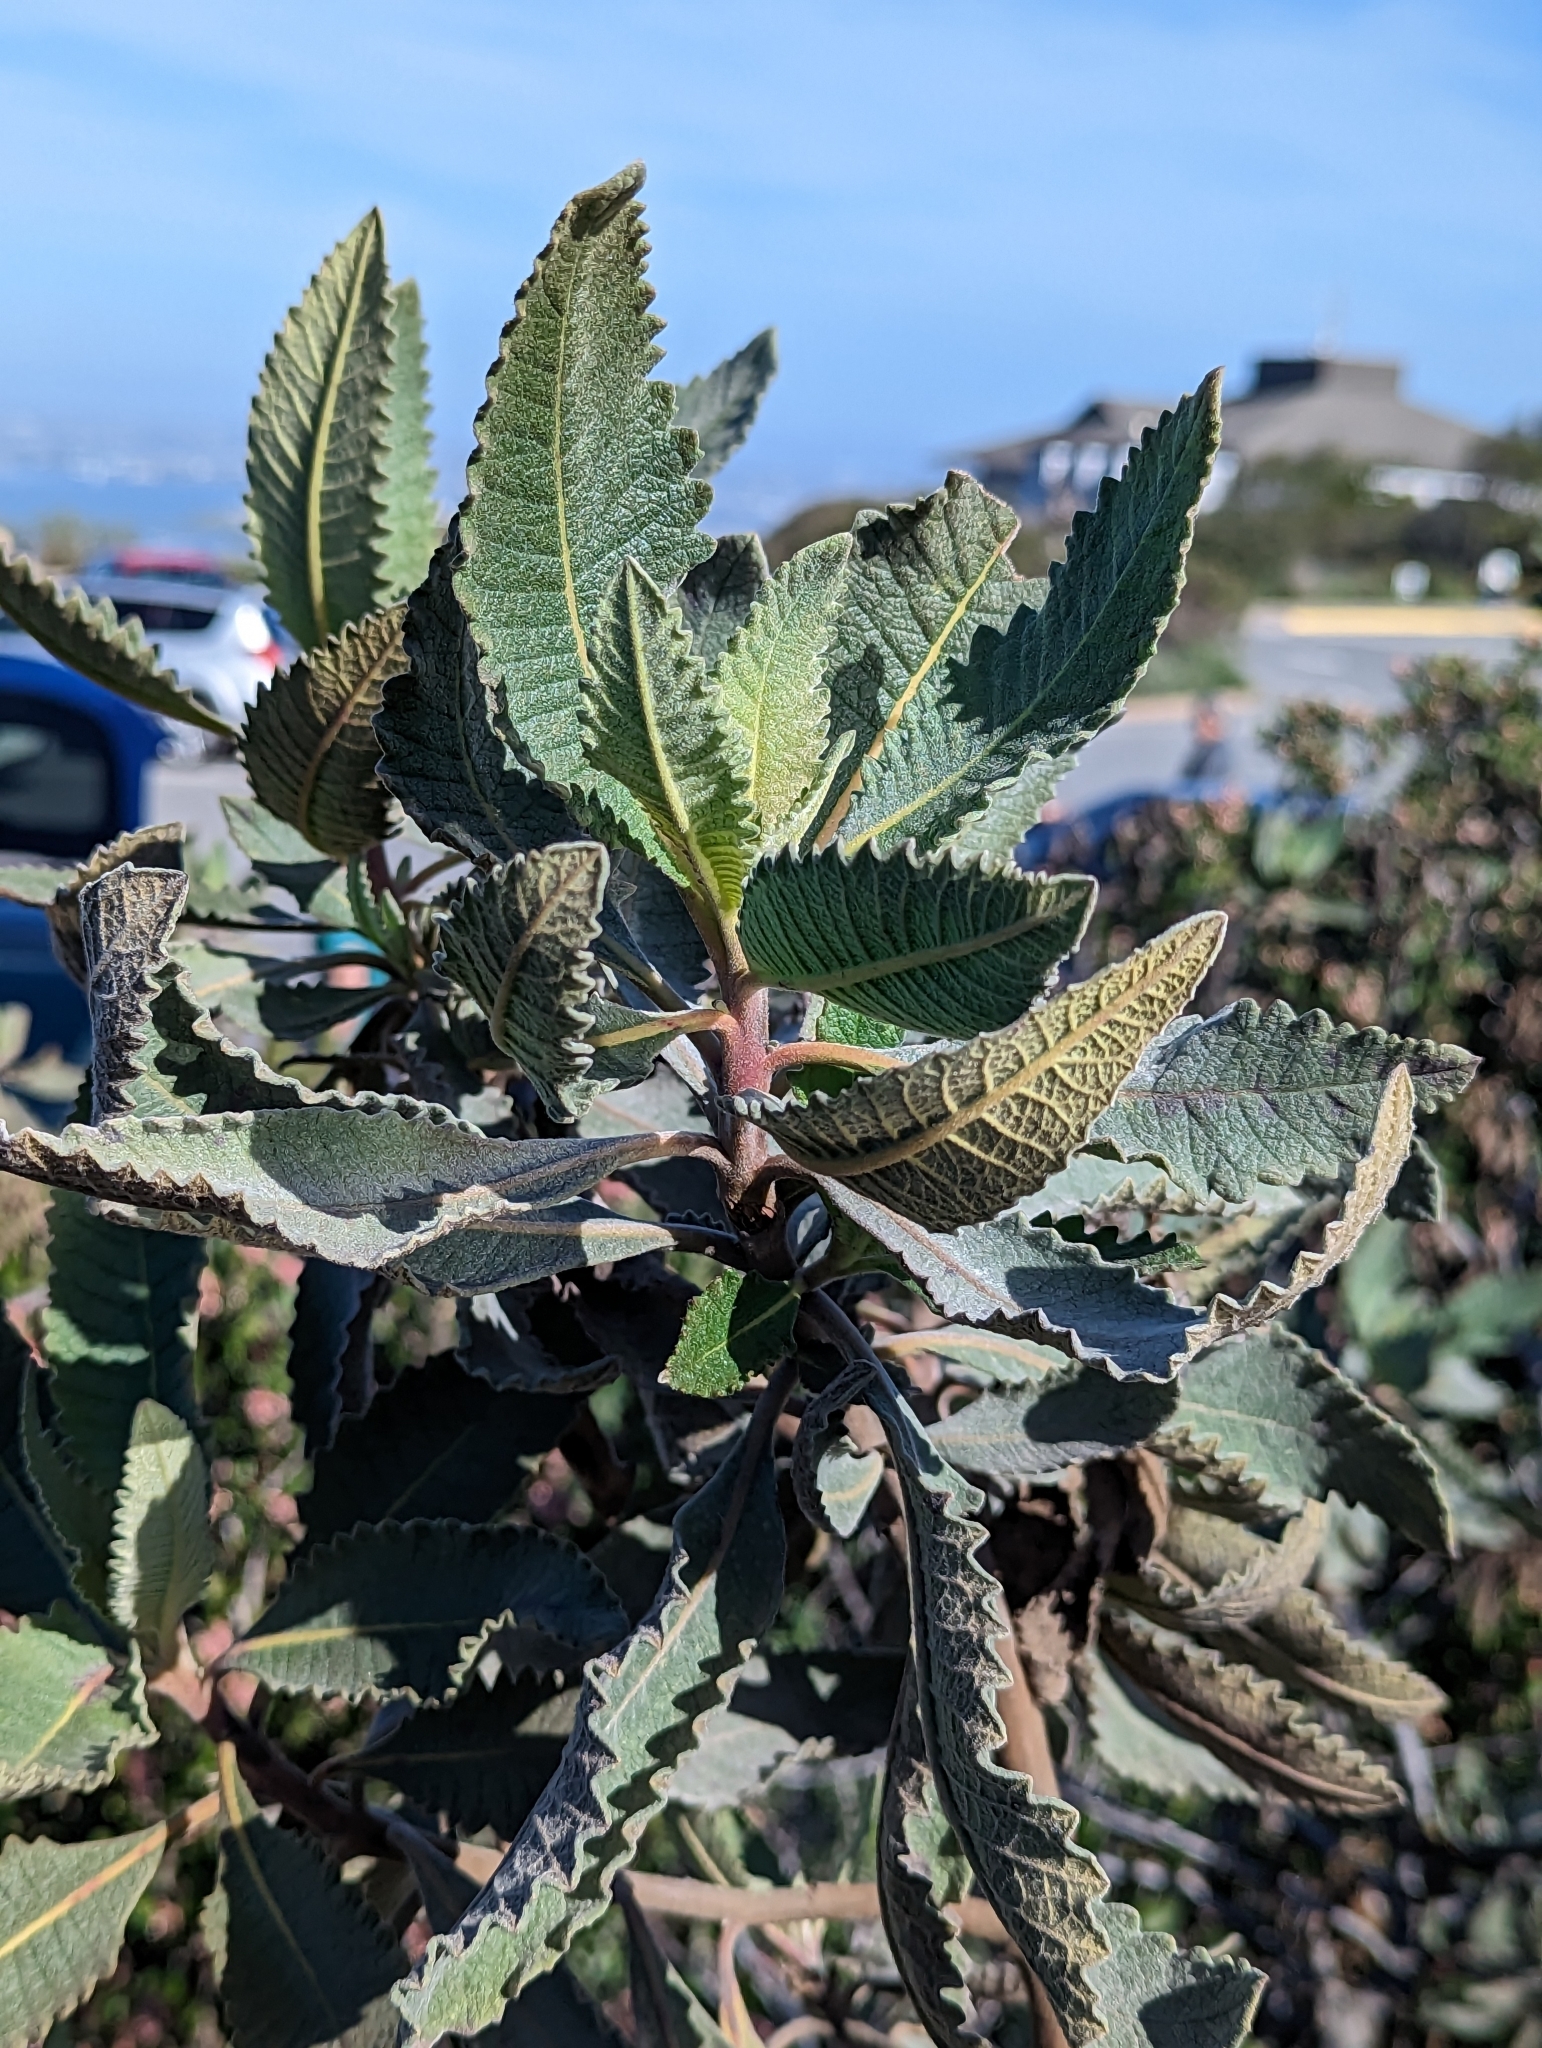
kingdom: Plantae
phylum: Tracheophyta
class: Magnoliopsida
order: Boraginales
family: Namaceae
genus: Eriodictyon
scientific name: Eriodictyon crassifolium
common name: Thick-leaf yerba-santa
